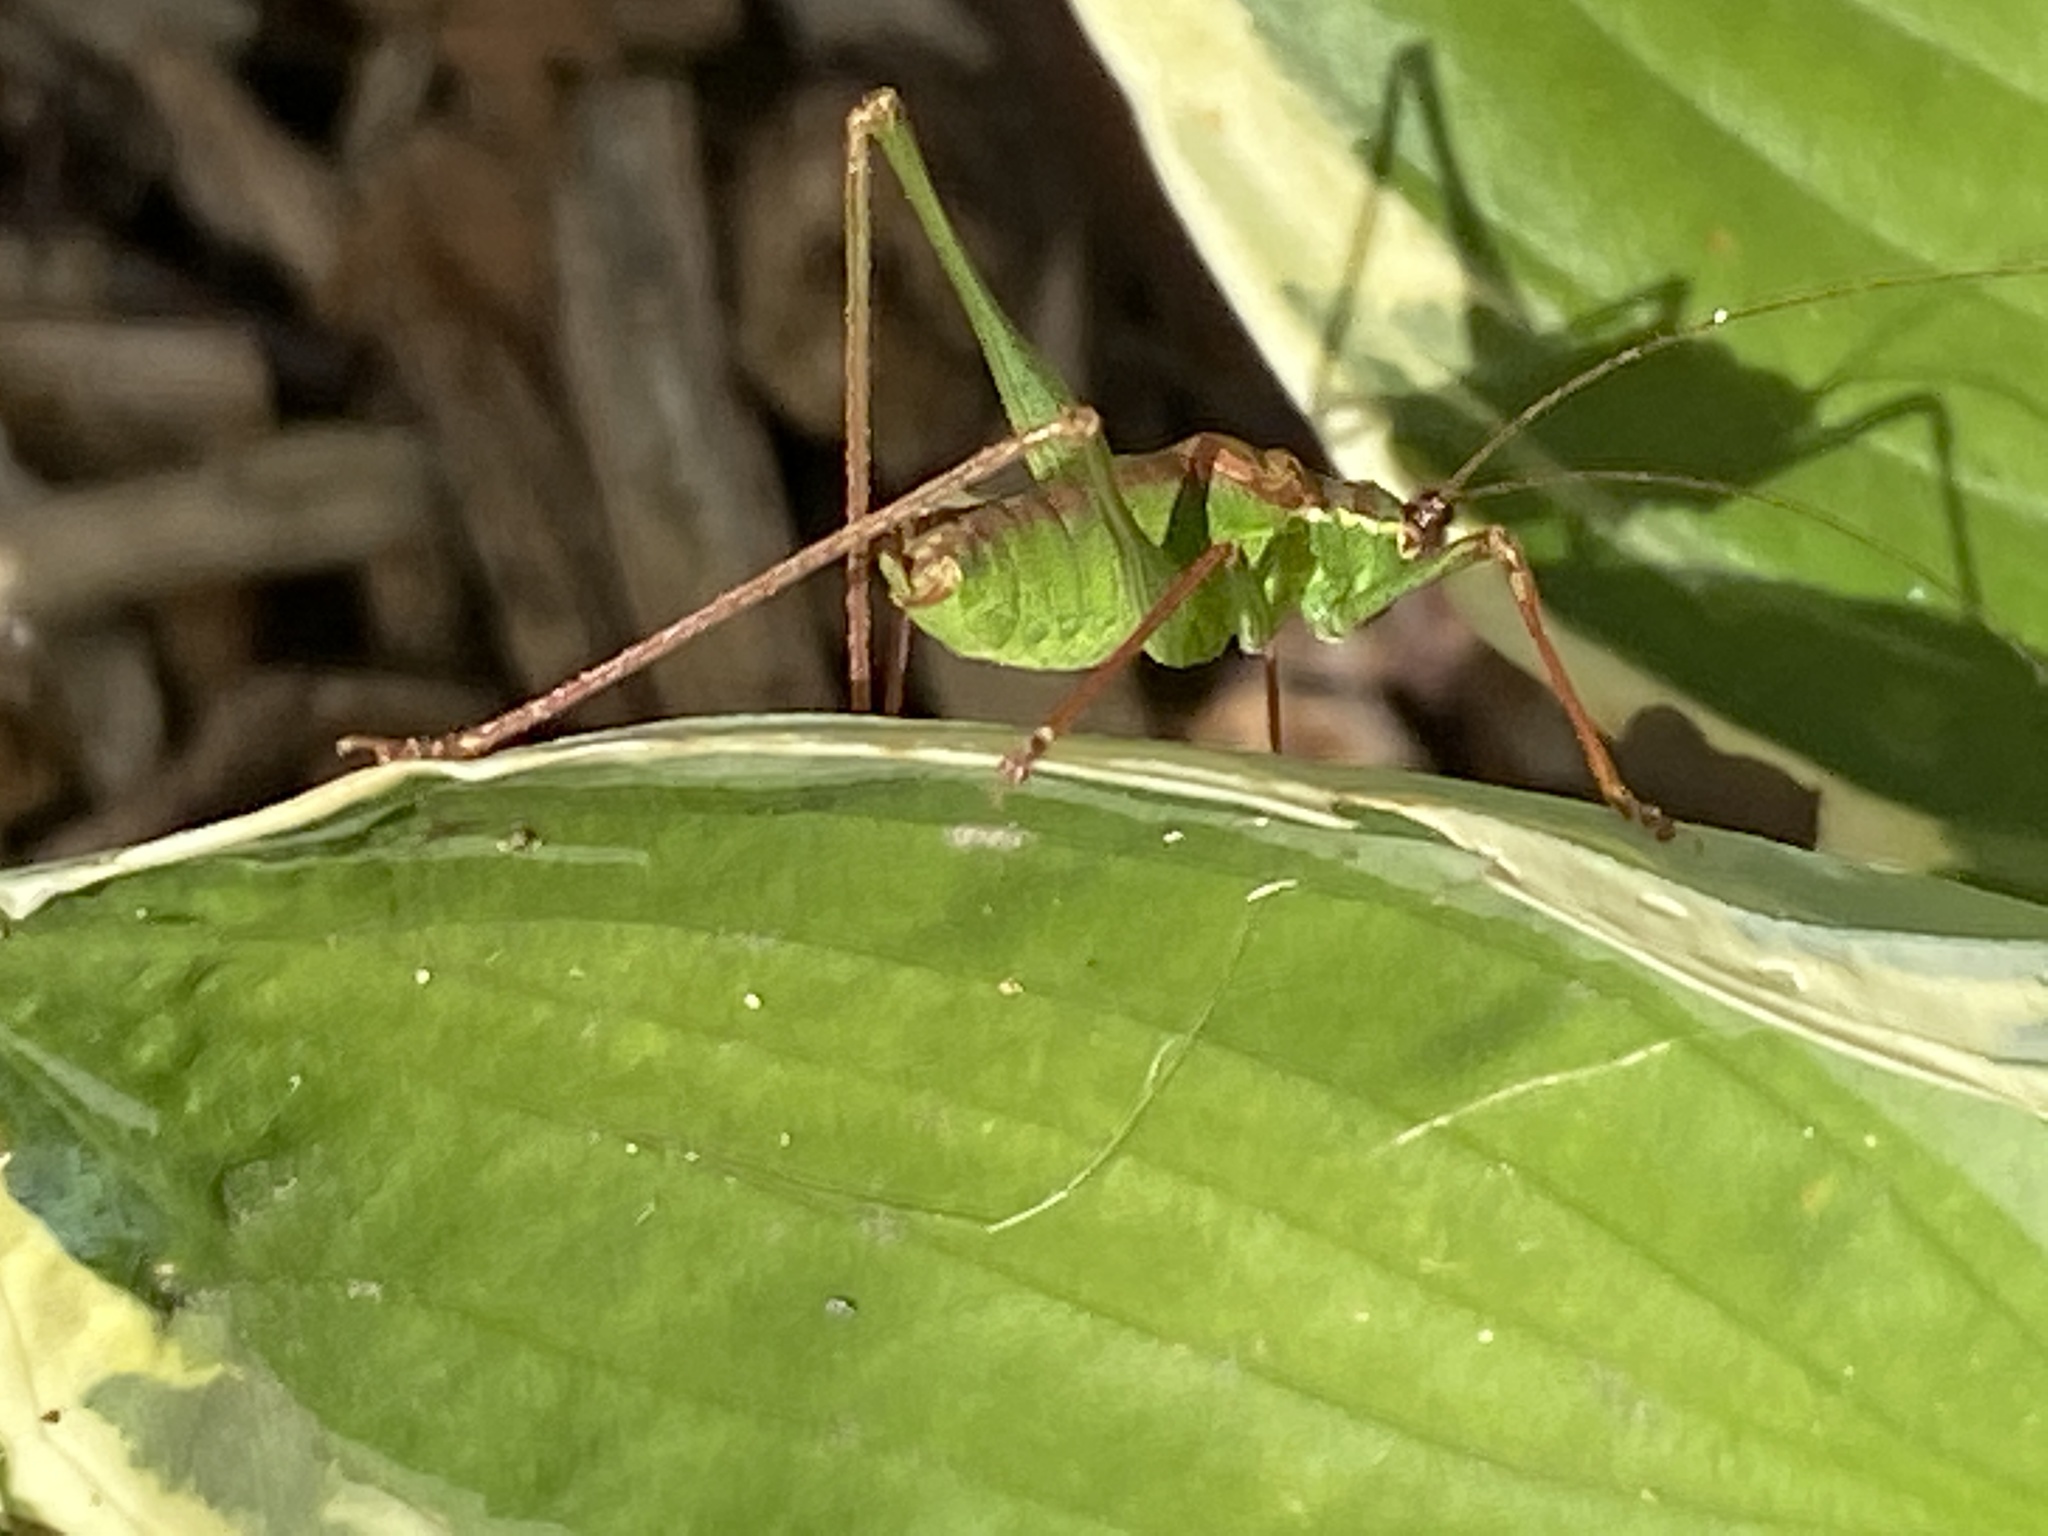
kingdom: Animalia
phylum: Arthropoda
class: Insecta
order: Orthoptera
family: Tettigoniidae
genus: Leptophyes
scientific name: Leptophyes punctatissima
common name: Speckled bush-cricket
